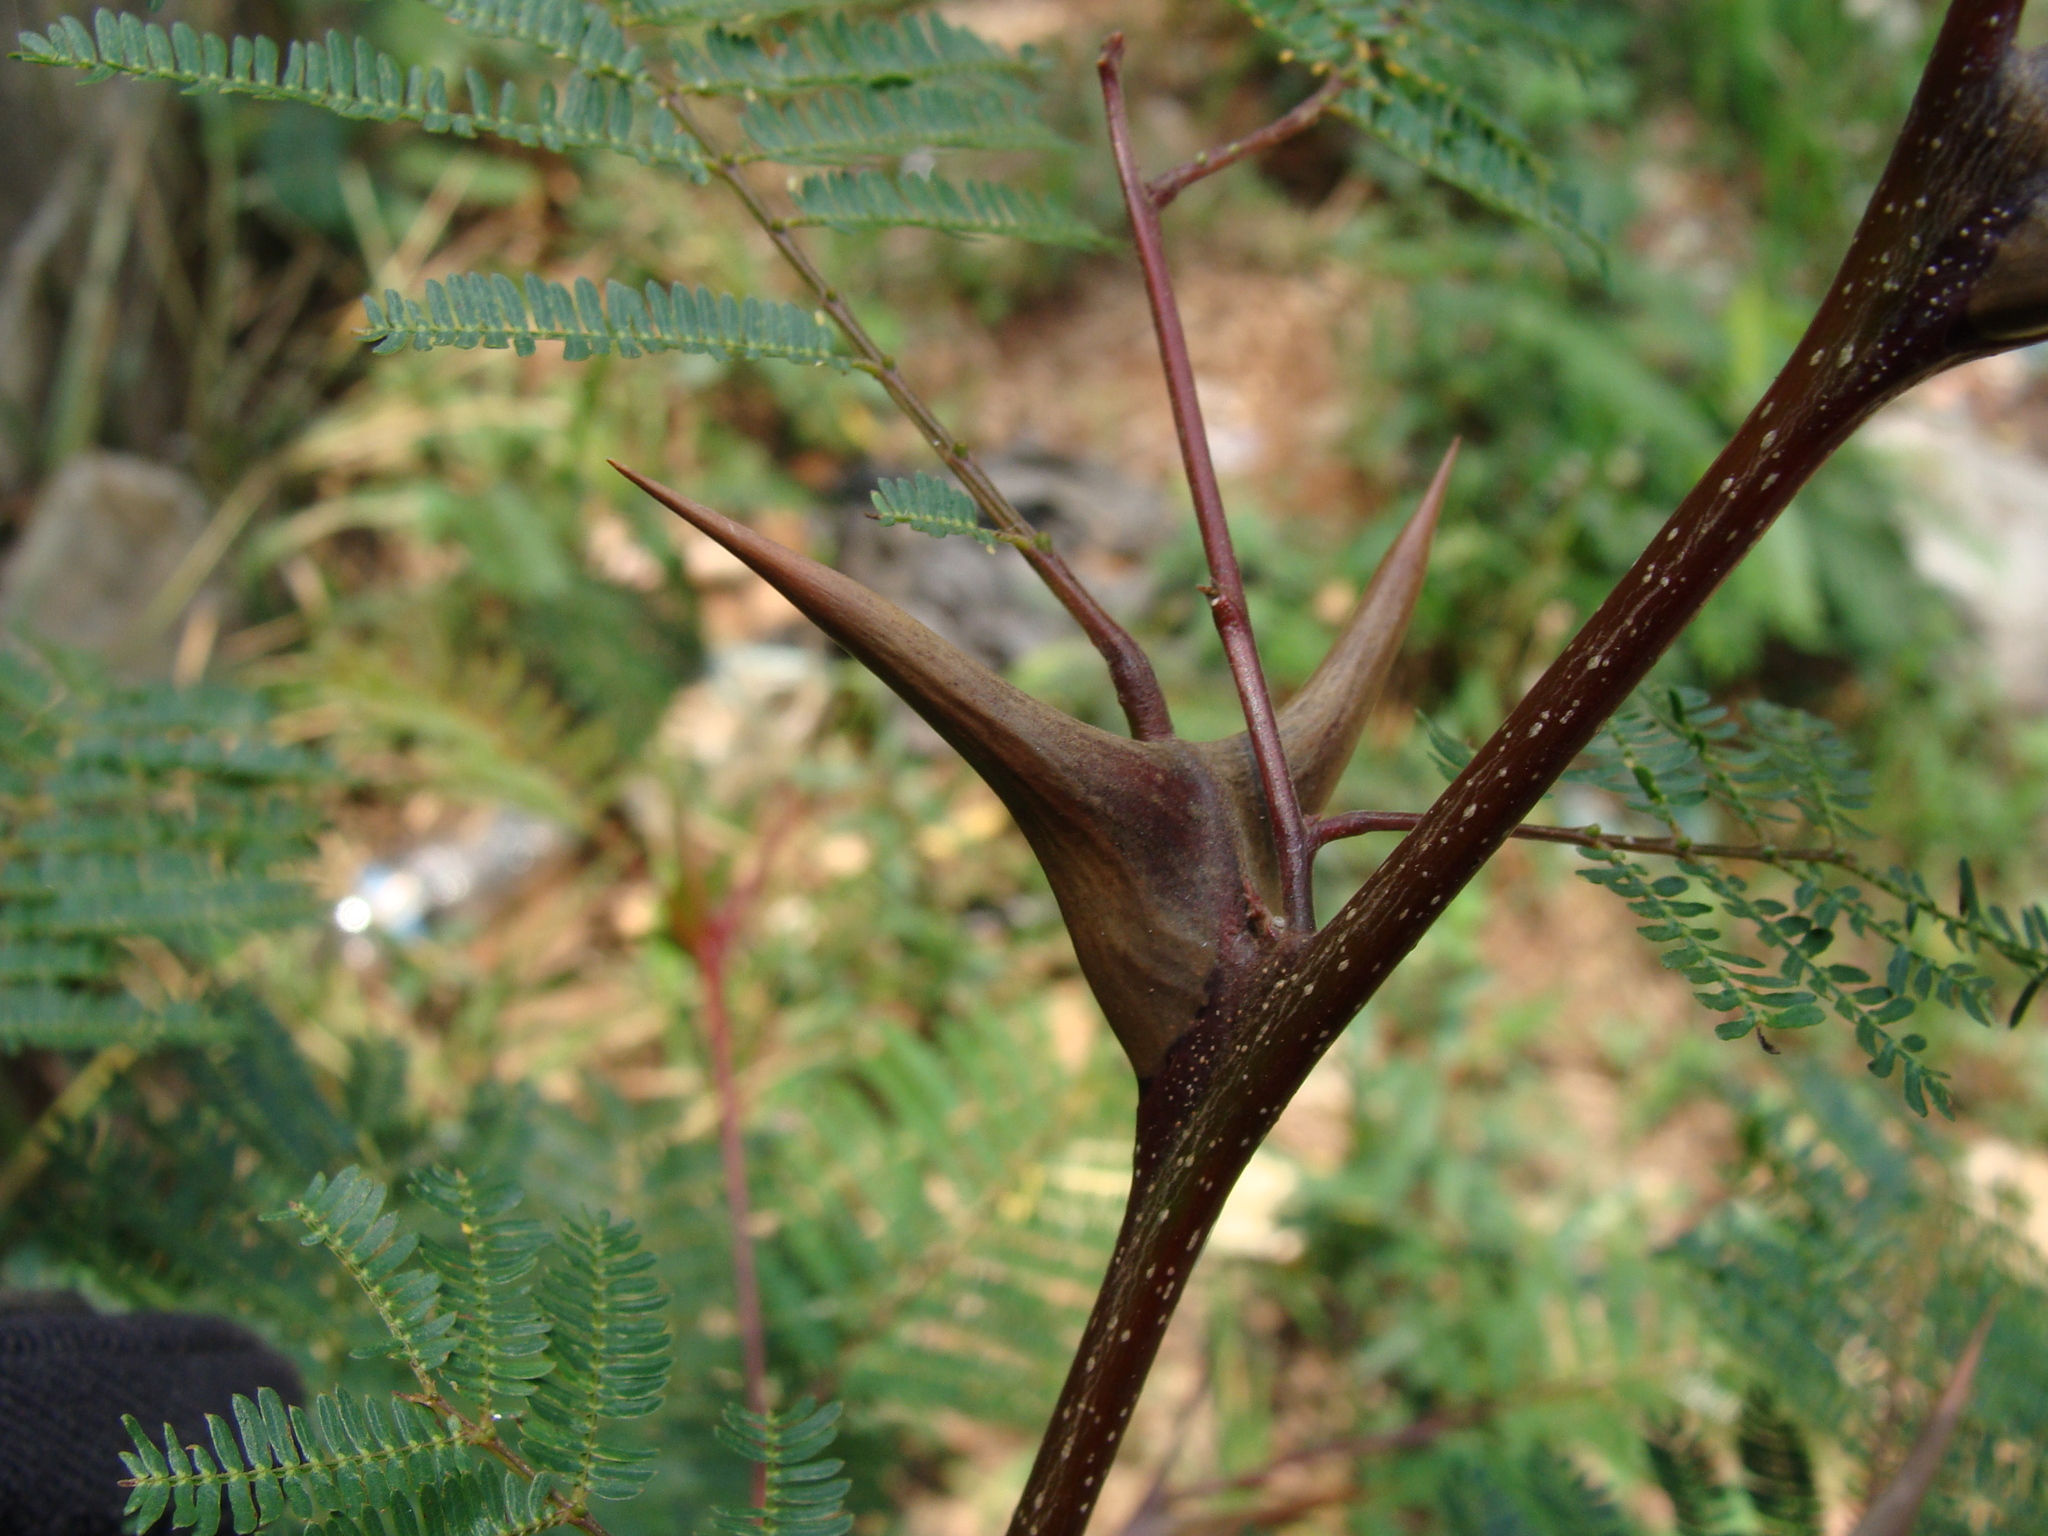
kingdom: Plantae
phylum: Tracheophyta
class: Magnoliopsida
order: Fabales
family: Fabaceae
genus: Vachellia
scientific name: Vachellia hindsii
